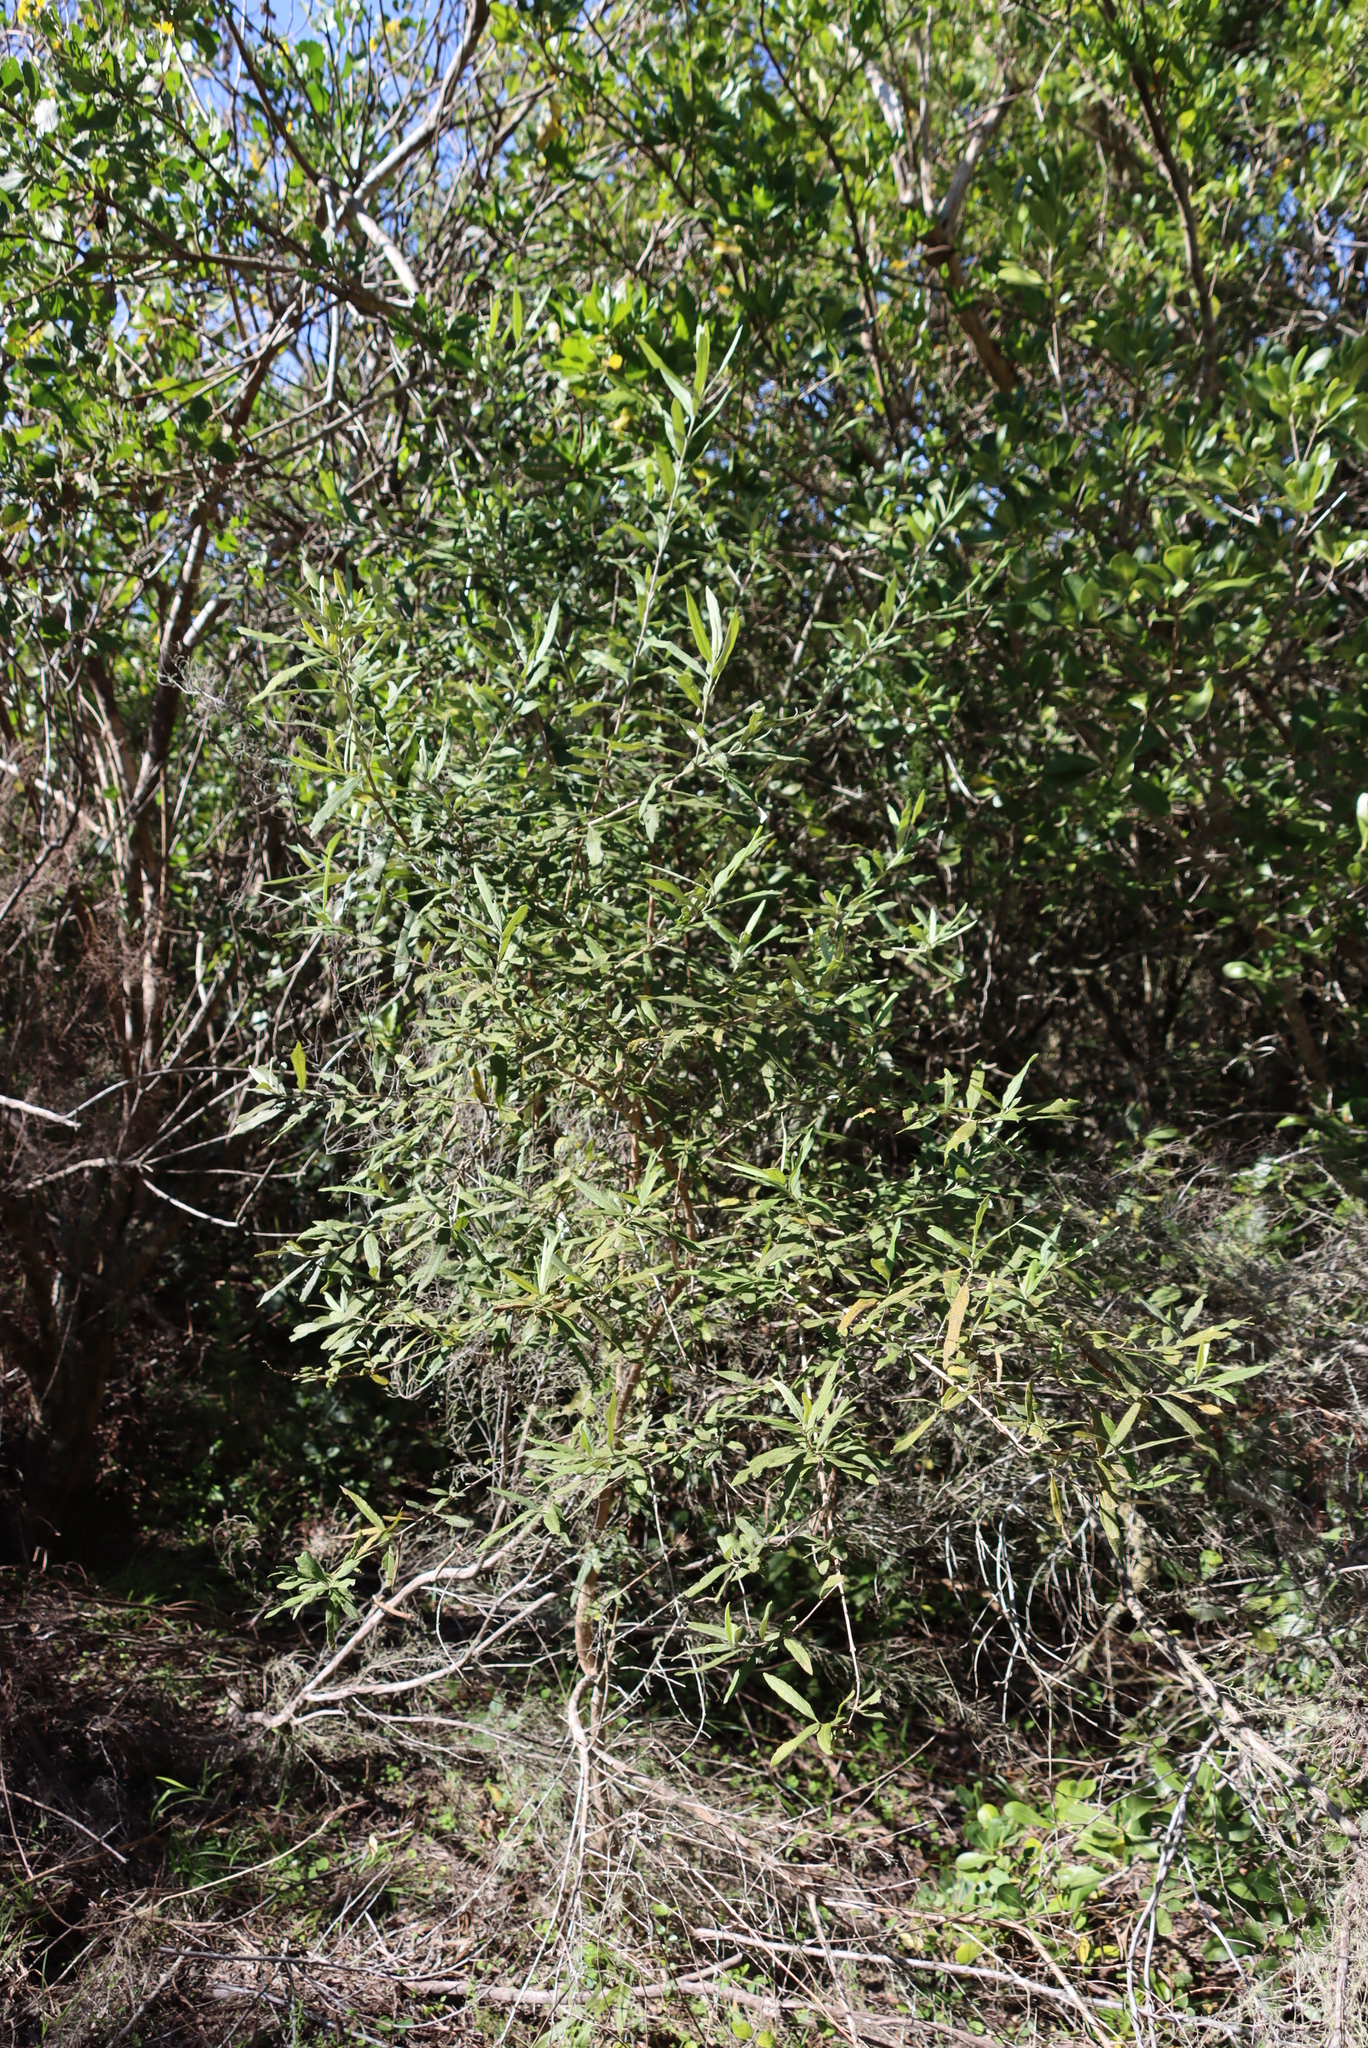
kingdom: Plantae
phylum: Tracheophyta
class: Magnoliopsida
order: Lamiales
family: Scrophulariaceae
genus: Buddleja
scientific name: Buddleja saligna
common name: False olive
